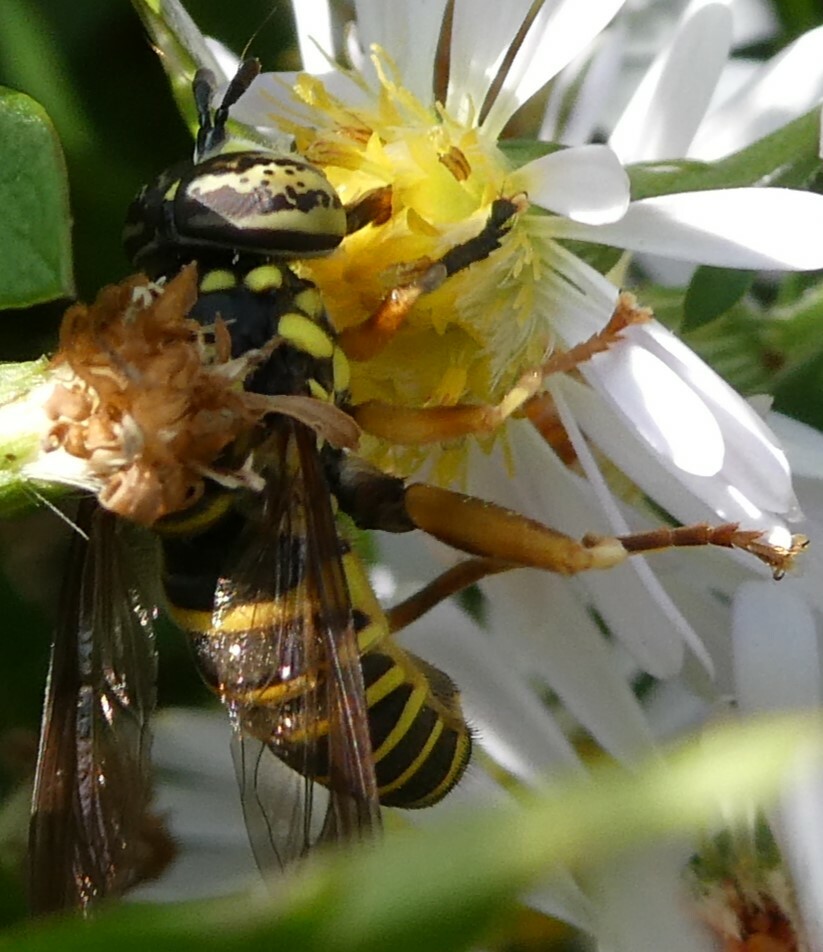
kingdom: Animalia
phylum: Arthropoda
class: Insecta
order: Diptera
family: Syrphidae
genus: Spilomyia
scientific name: Spilomyia longicornis
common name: Eastern hornet fly
